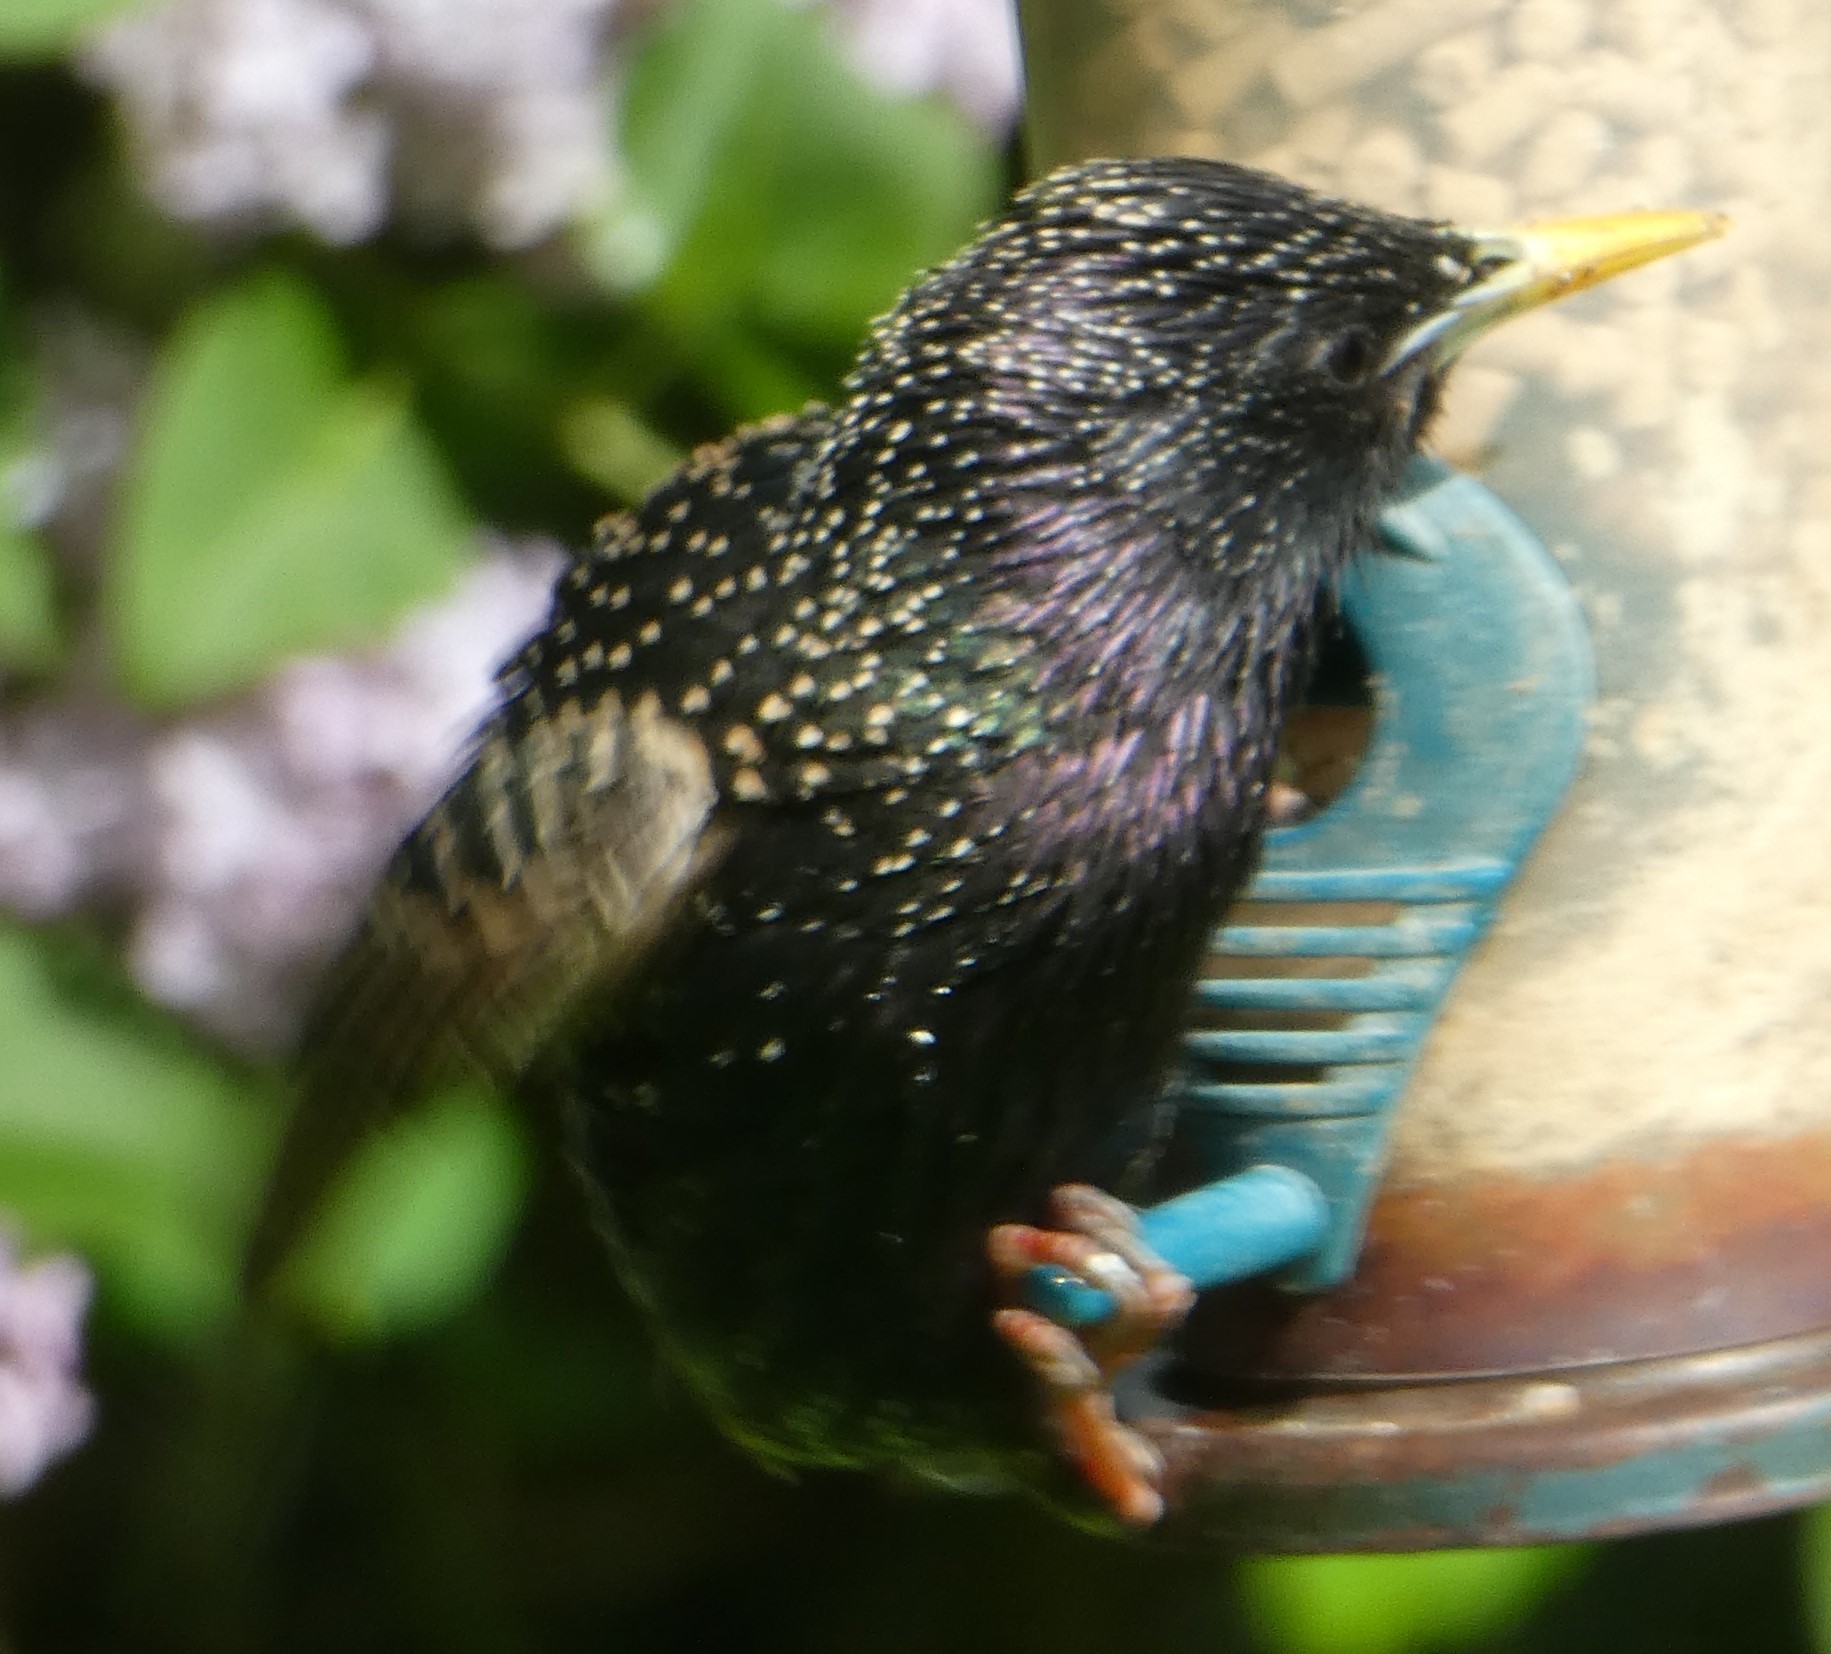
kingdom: Animalia
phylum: Chordata
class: Aves
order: Passeriformes
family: Sturnidae
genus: Sturnus
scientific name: Sturnus vulgaris
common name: Common starling
